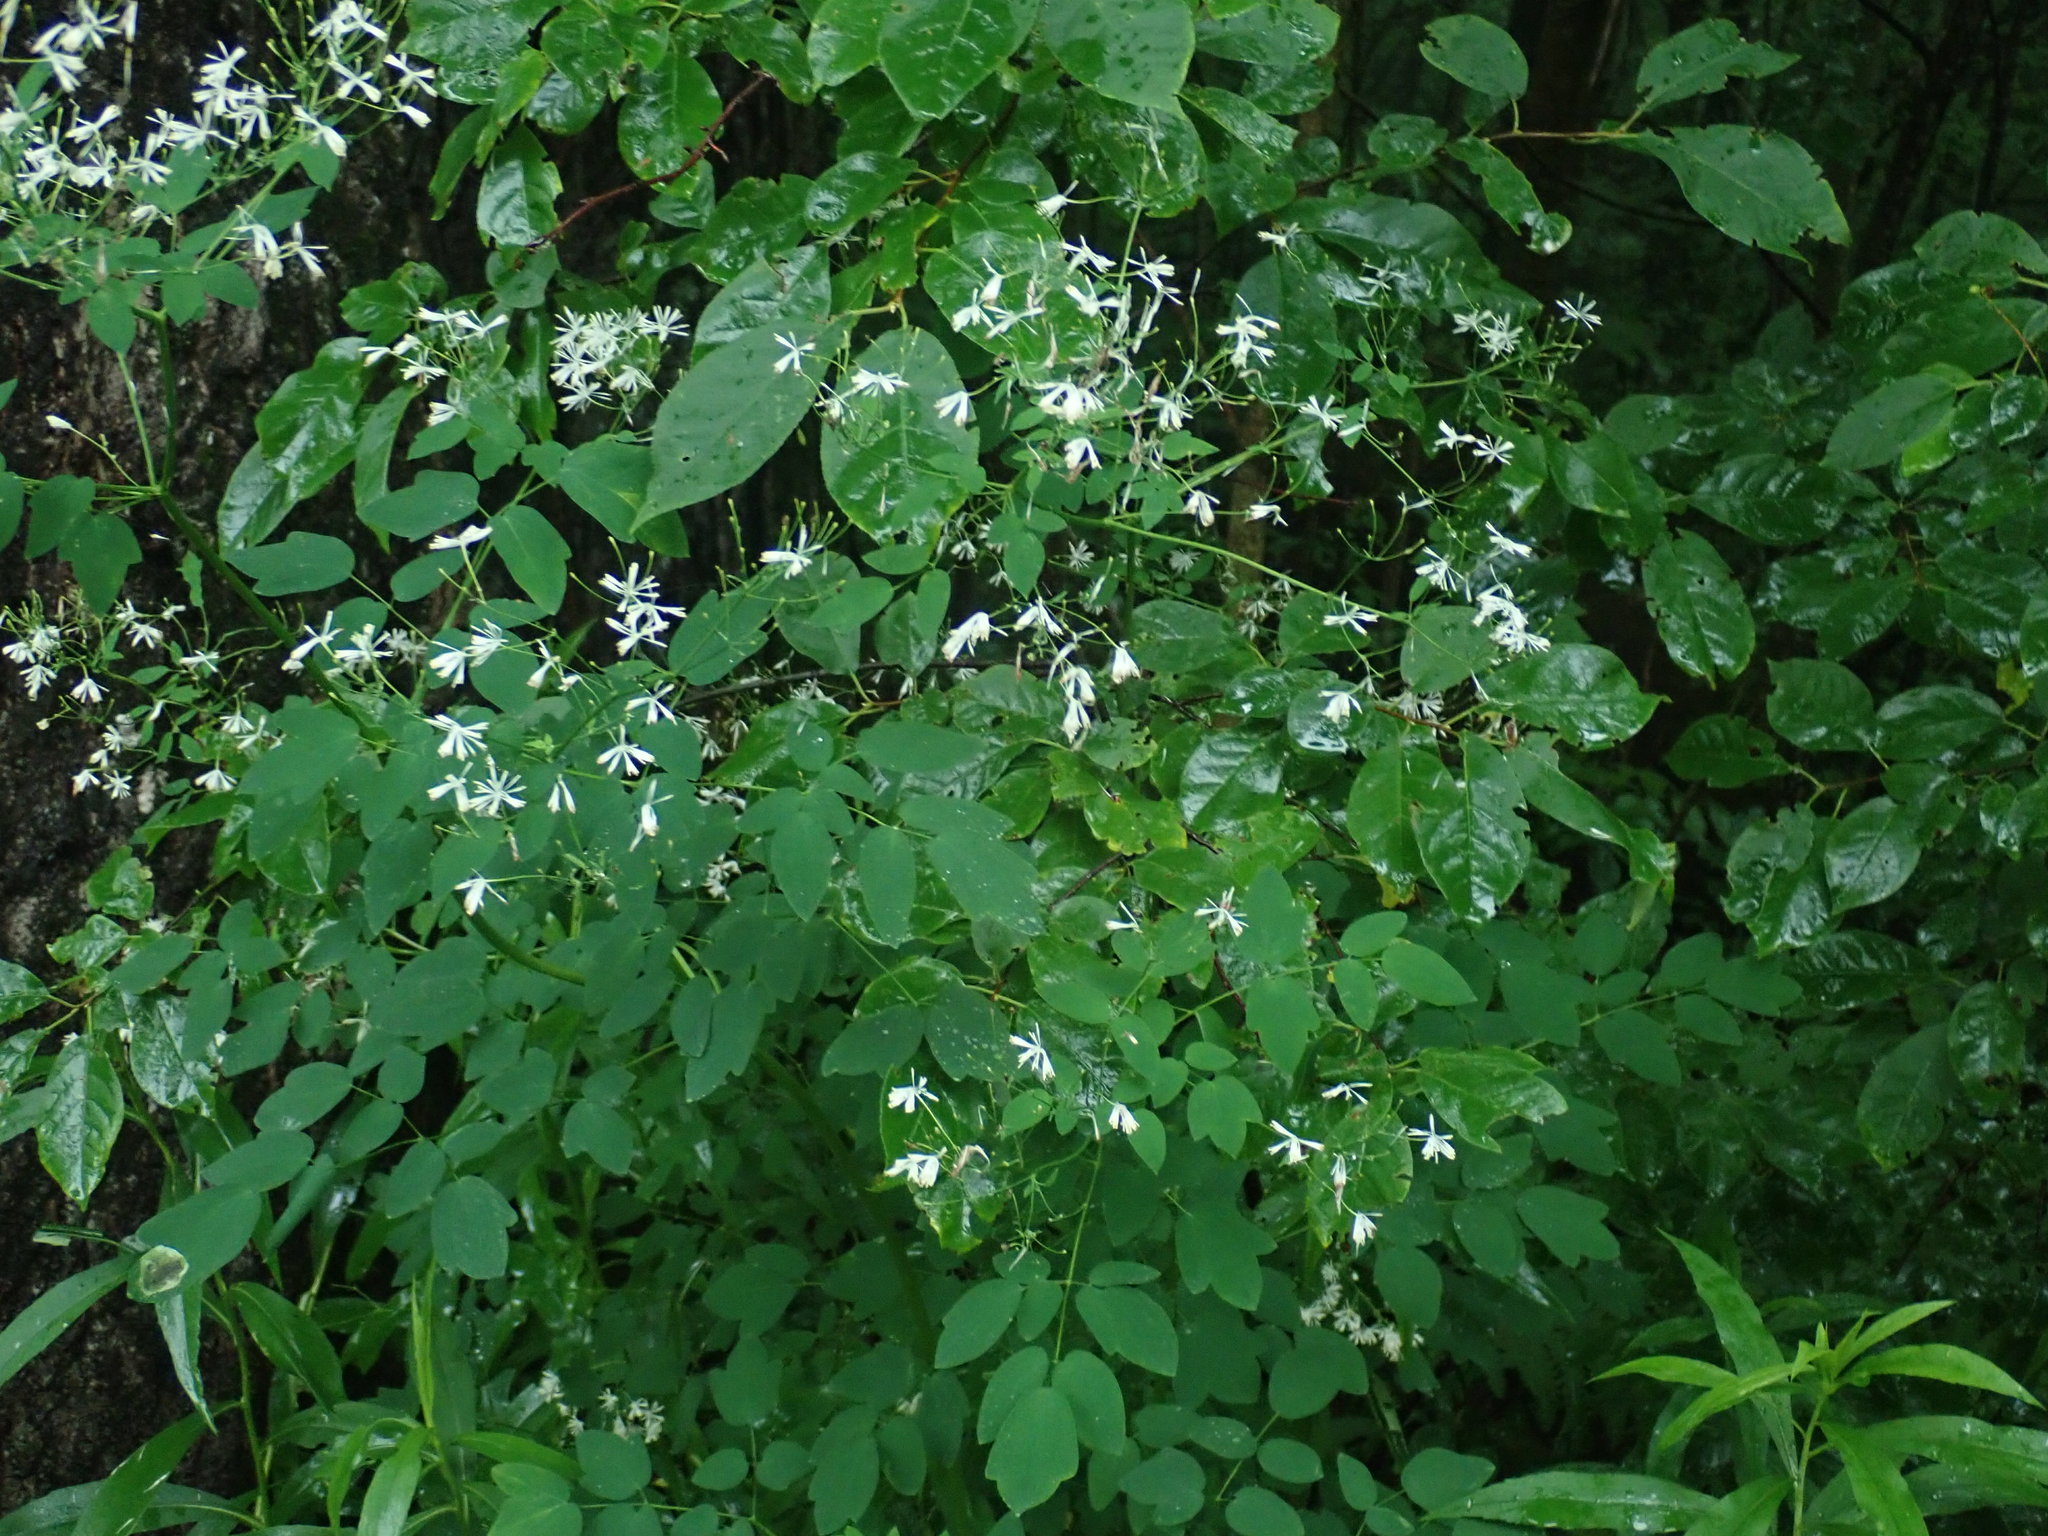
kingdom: Plantae
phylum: Tracheophyta
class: Magnoliopsida
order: Ranunculales
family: Ranunculaceae
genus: Thalictrum
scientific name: Thalictrum pubescens
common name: King-of-the-meadow
